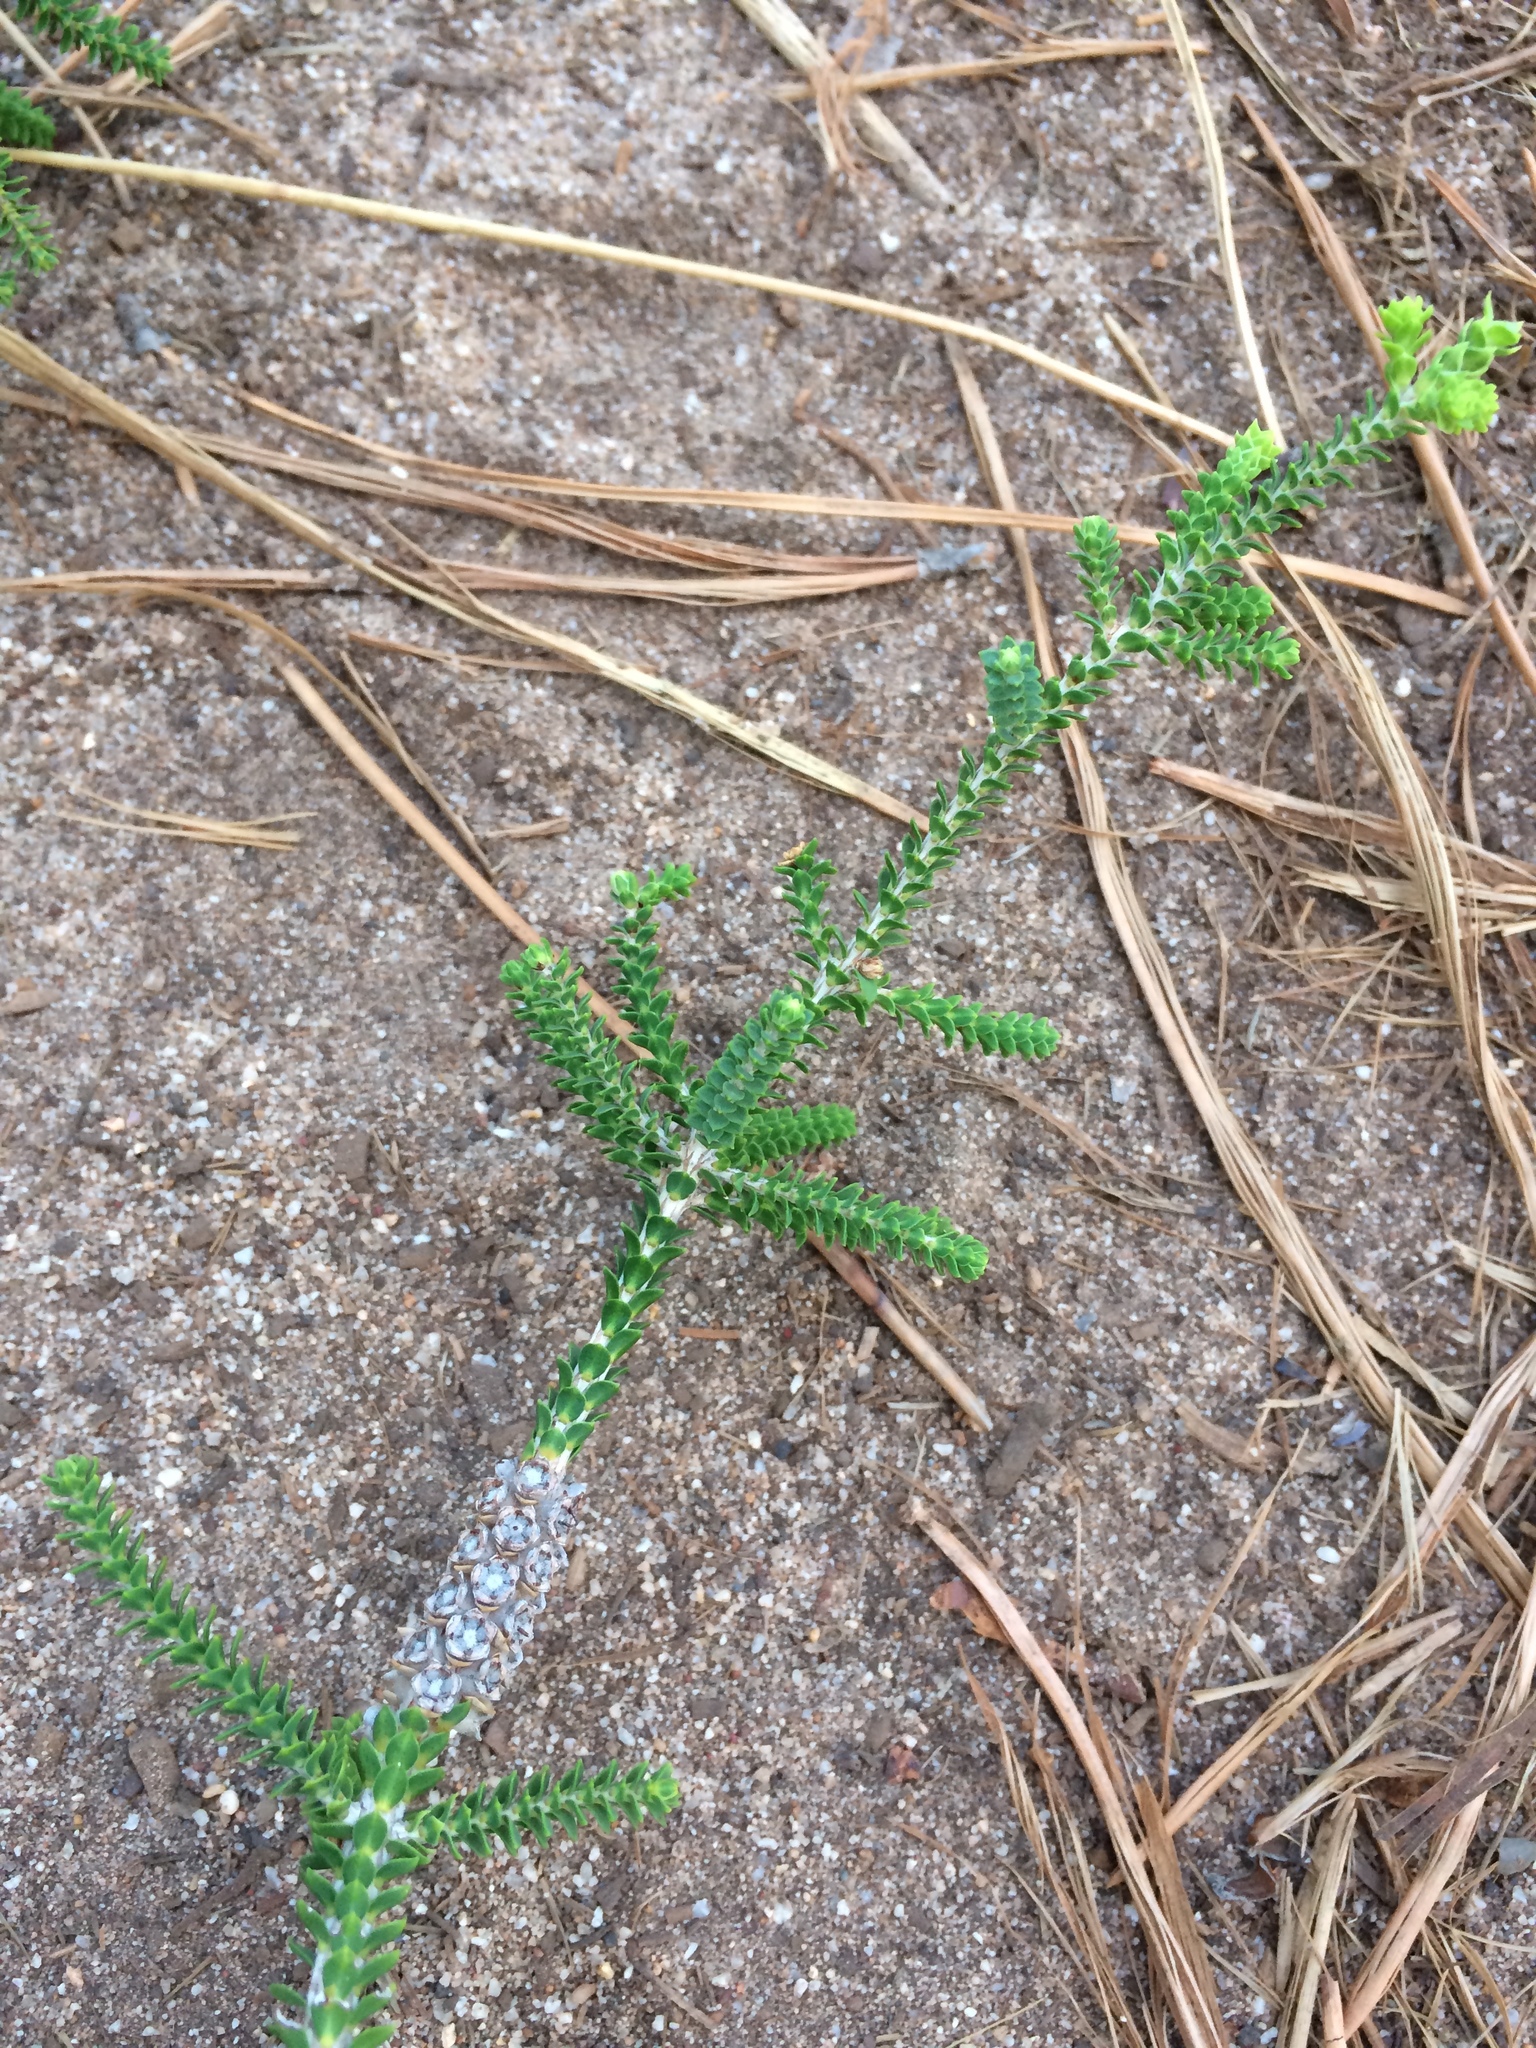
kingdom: Plantae
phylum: Tracheophyta
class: Magnoliopsida
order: Myrtales
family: Myrtaceae
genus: Melaleuca
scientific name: Melaleuca densa
